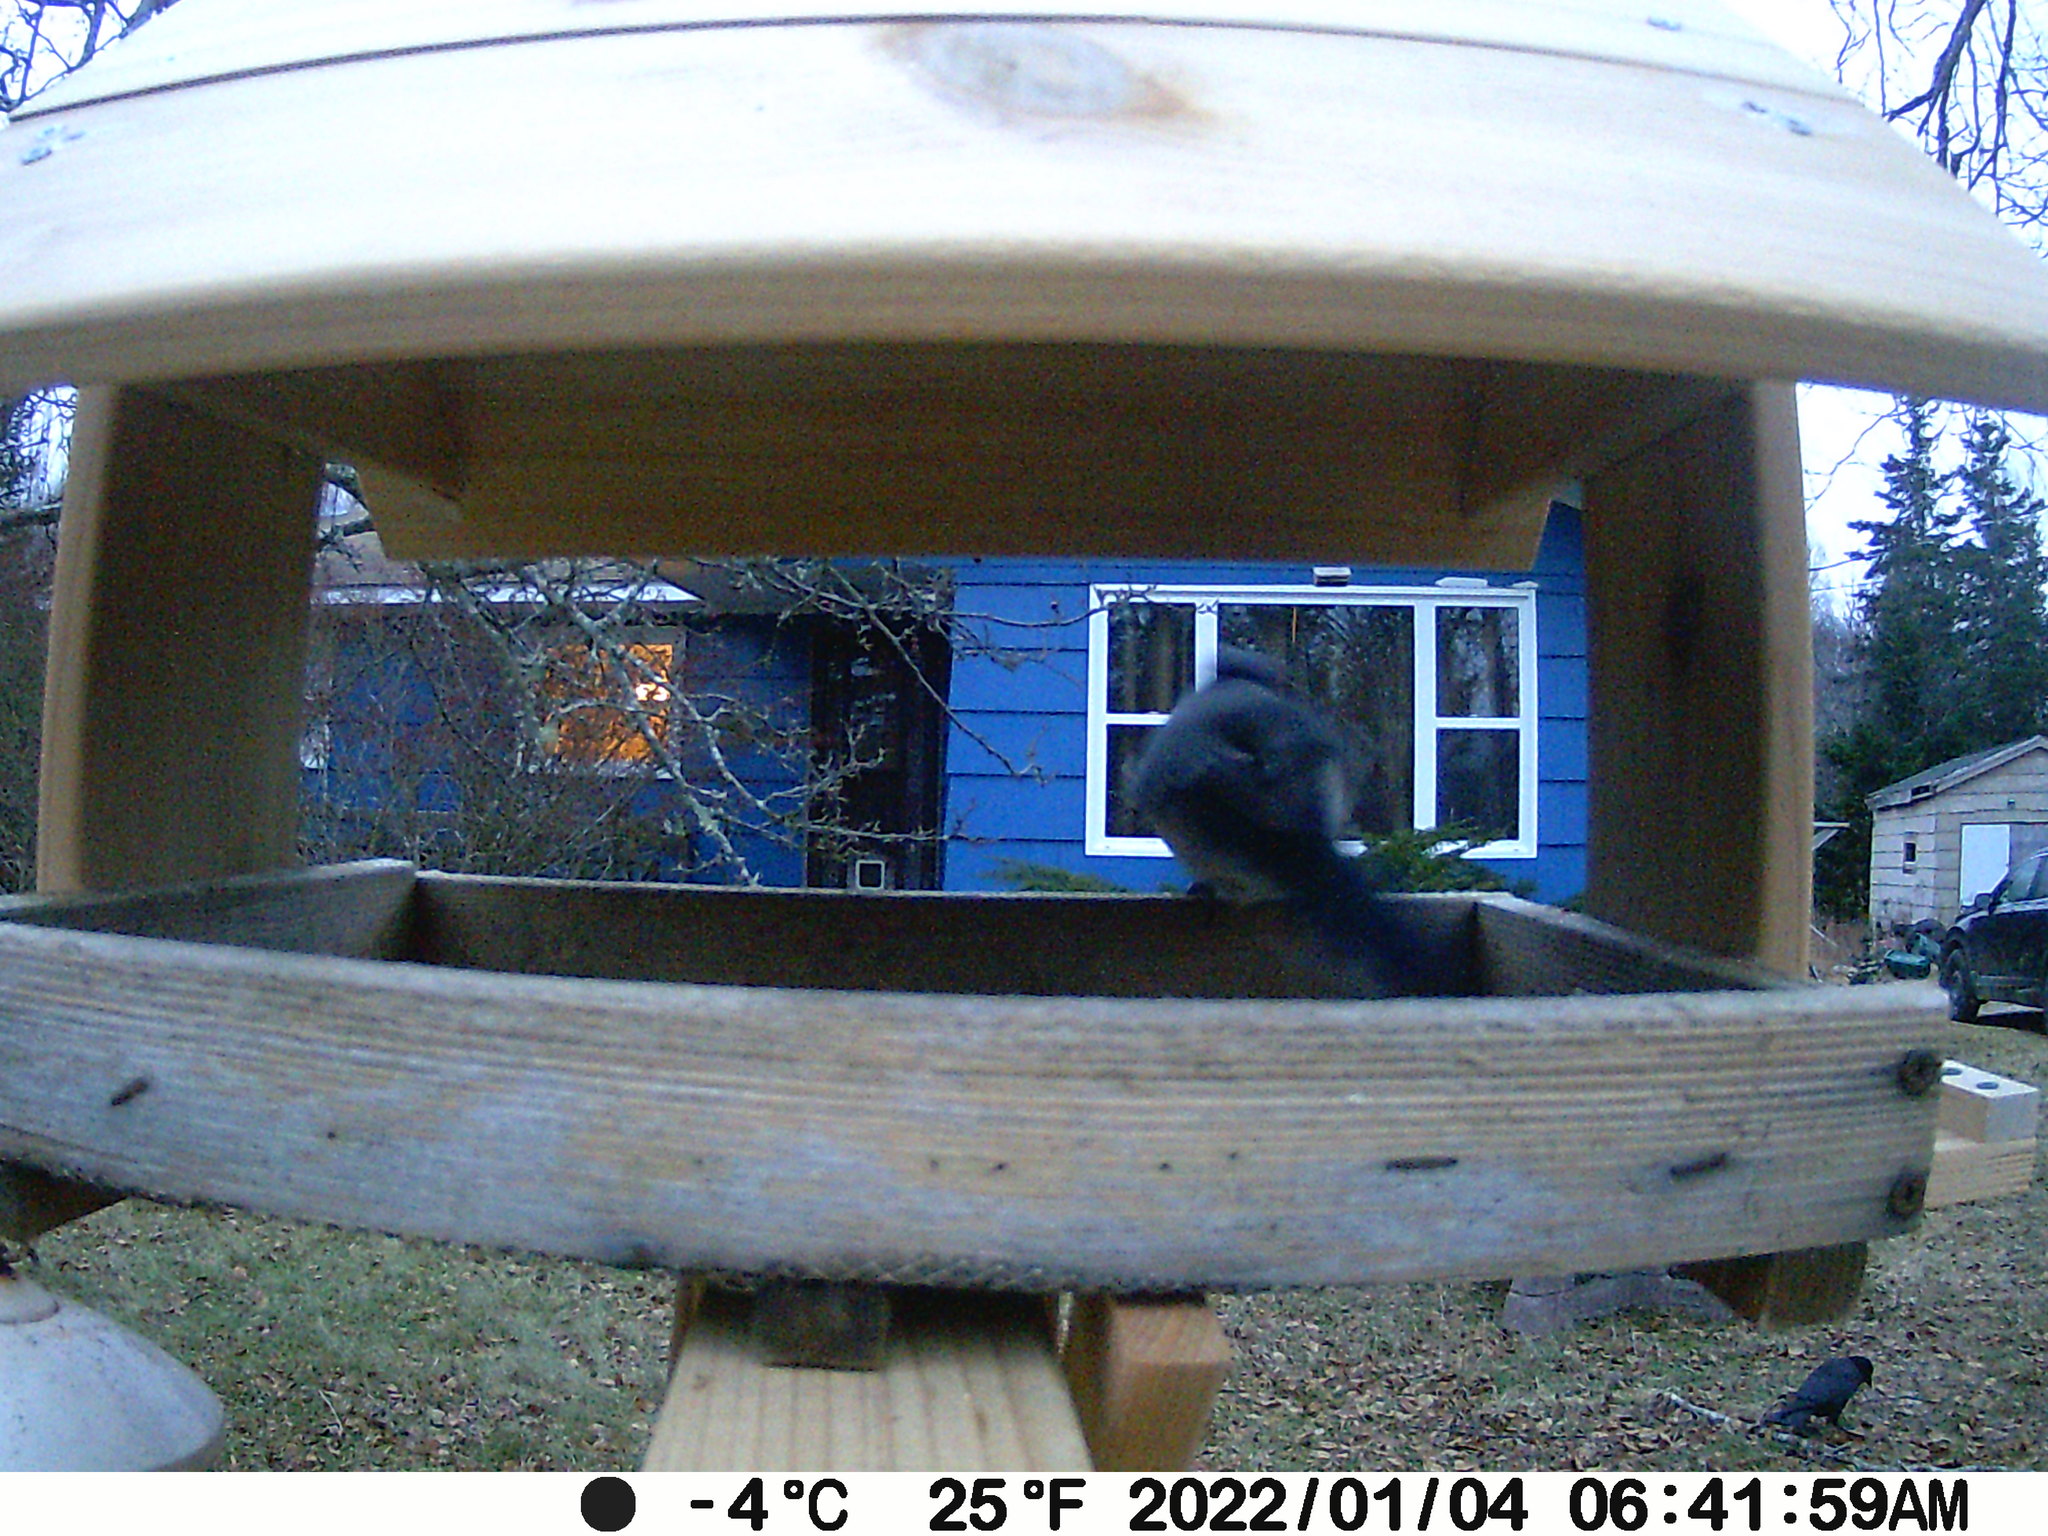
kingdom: Animalia
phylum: Chordata
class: Aves
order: Passeriformes
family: Corvidae
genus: Corvus
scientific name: Corvus brachyrhynchos
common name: American crow
